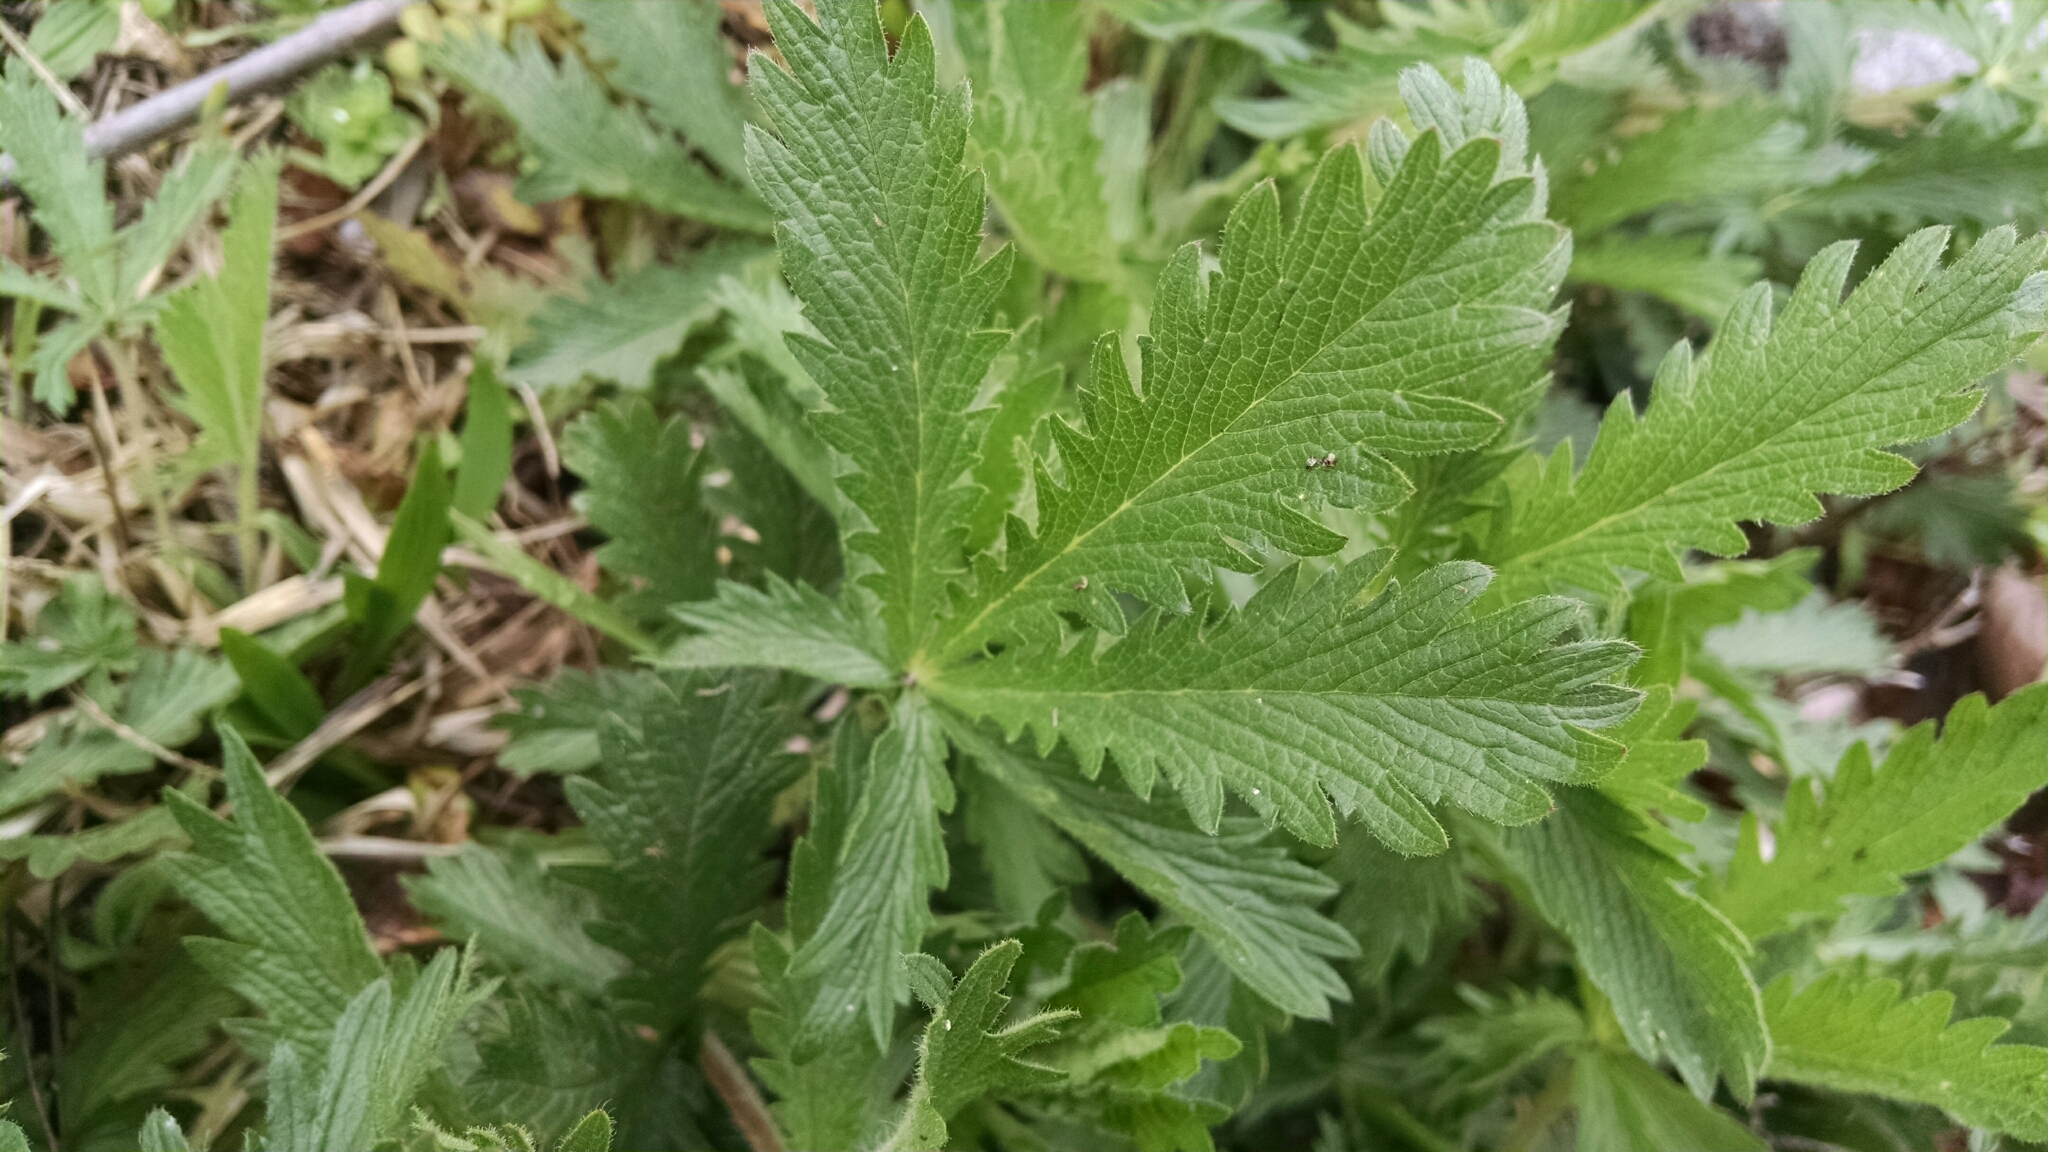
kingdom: Plantae
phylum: Tracheophyta
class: Magnoliopsida
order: Rosales
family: Rosaceae
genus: Potentilla
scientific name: Potentilla recta
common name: Sulphur cinquefoil
